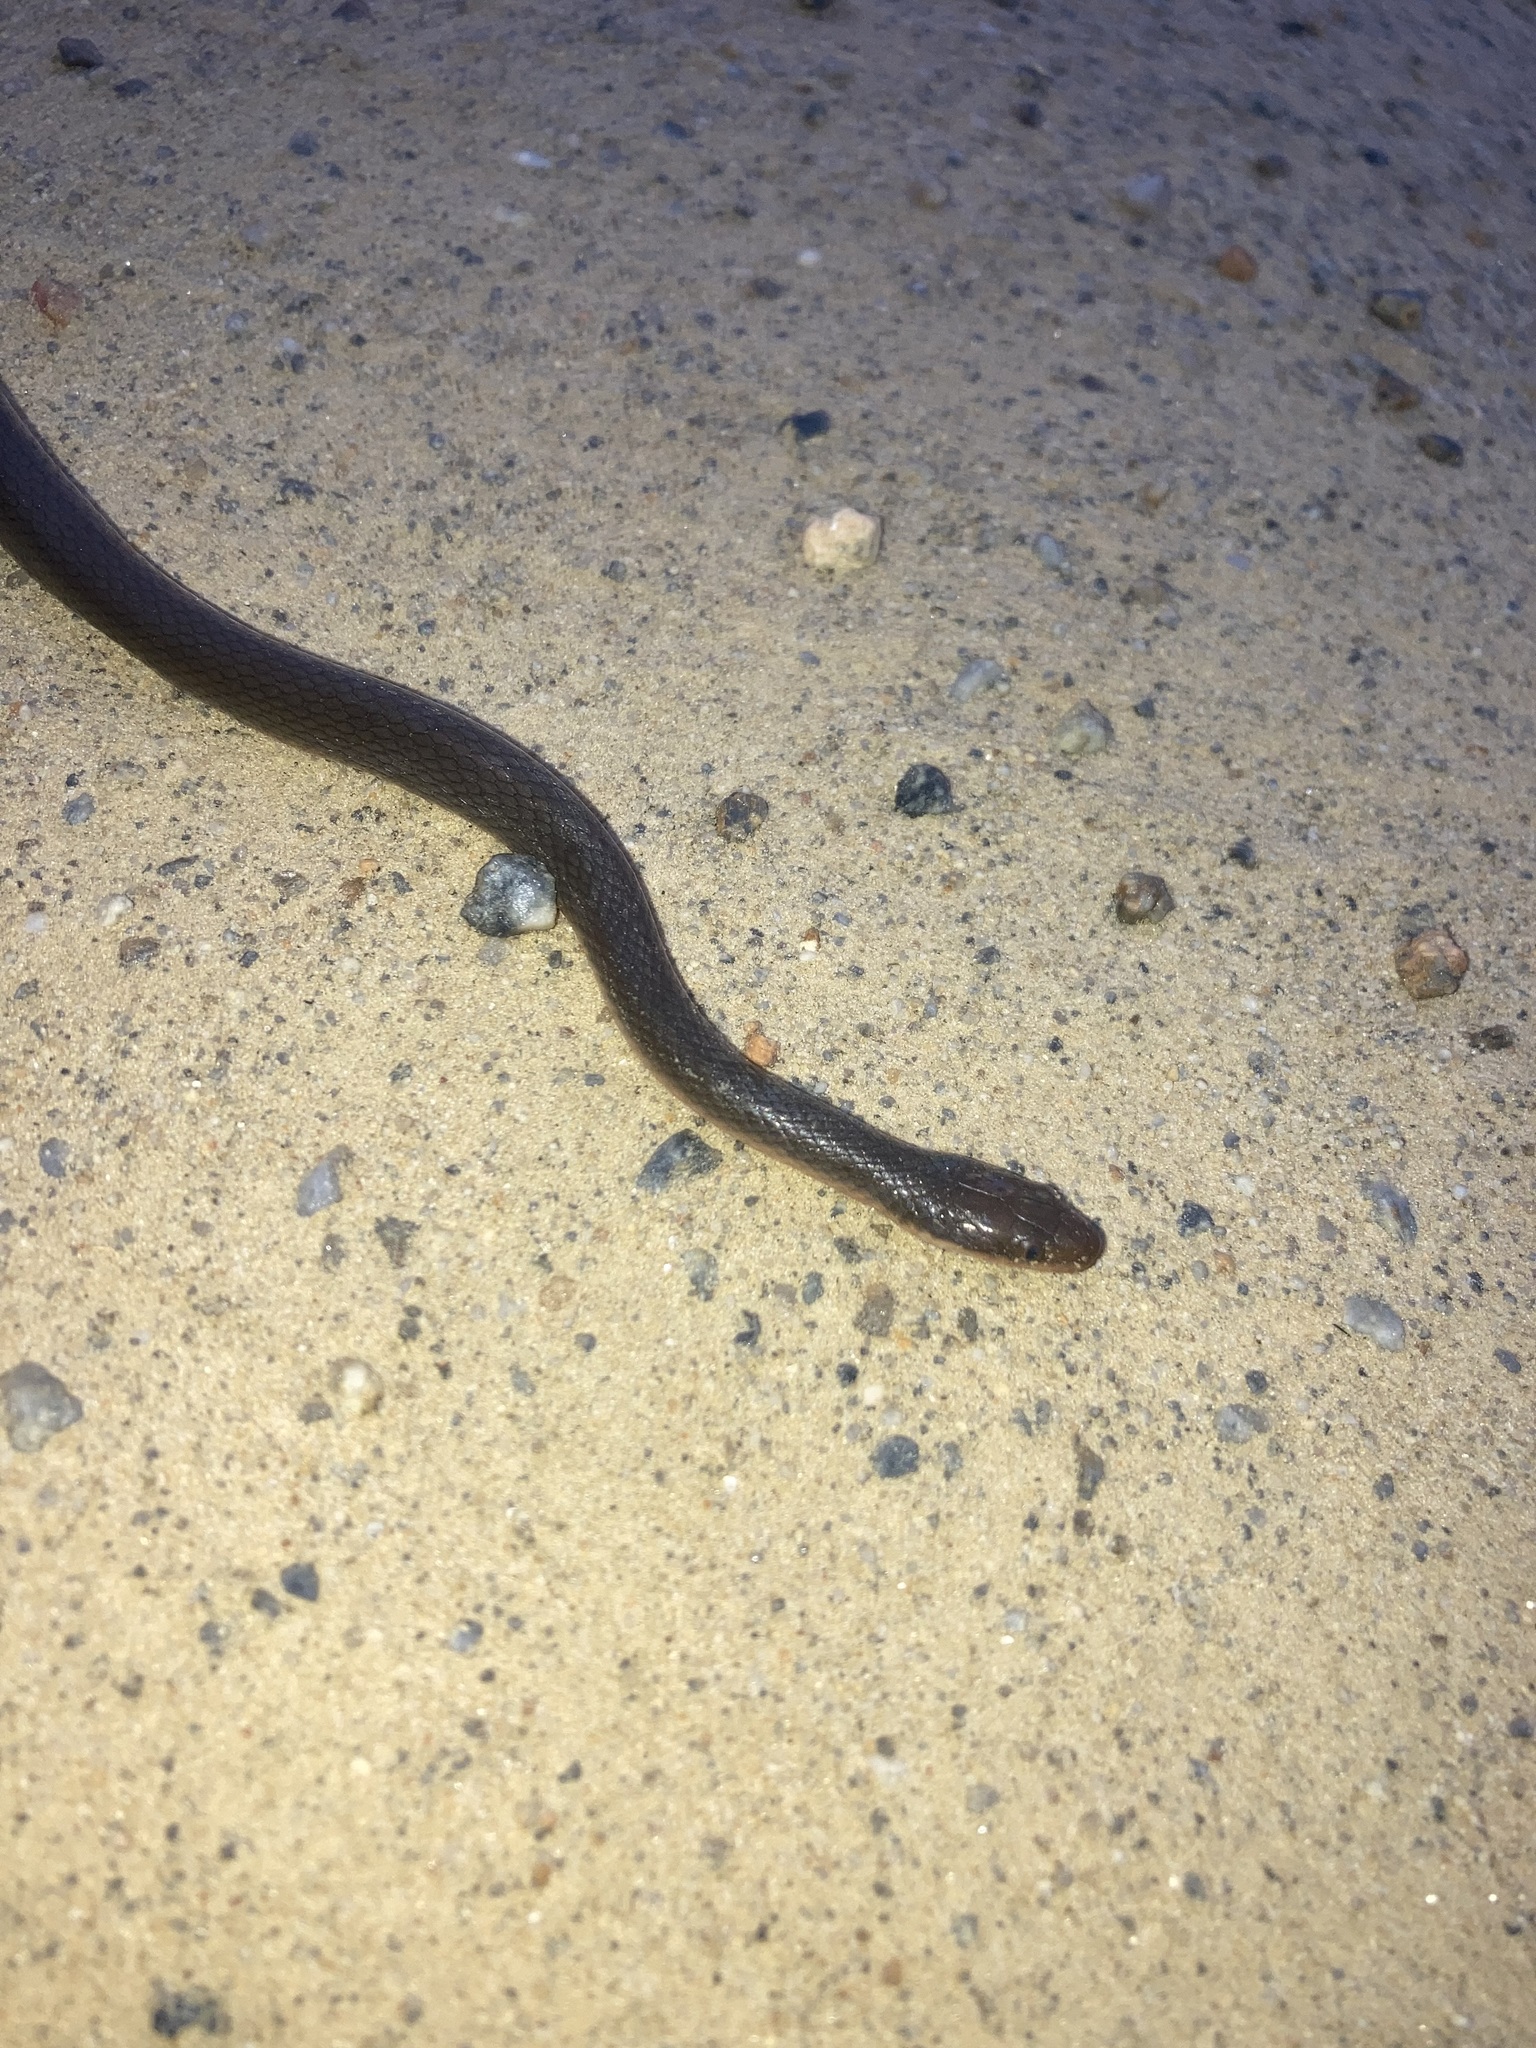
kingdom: Animalia
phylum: Chordata
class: Squamata
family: Lamprophiidae
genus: Lycodonomorphus
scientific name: Lycodonomorphus rufulus
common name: Brown water snake
